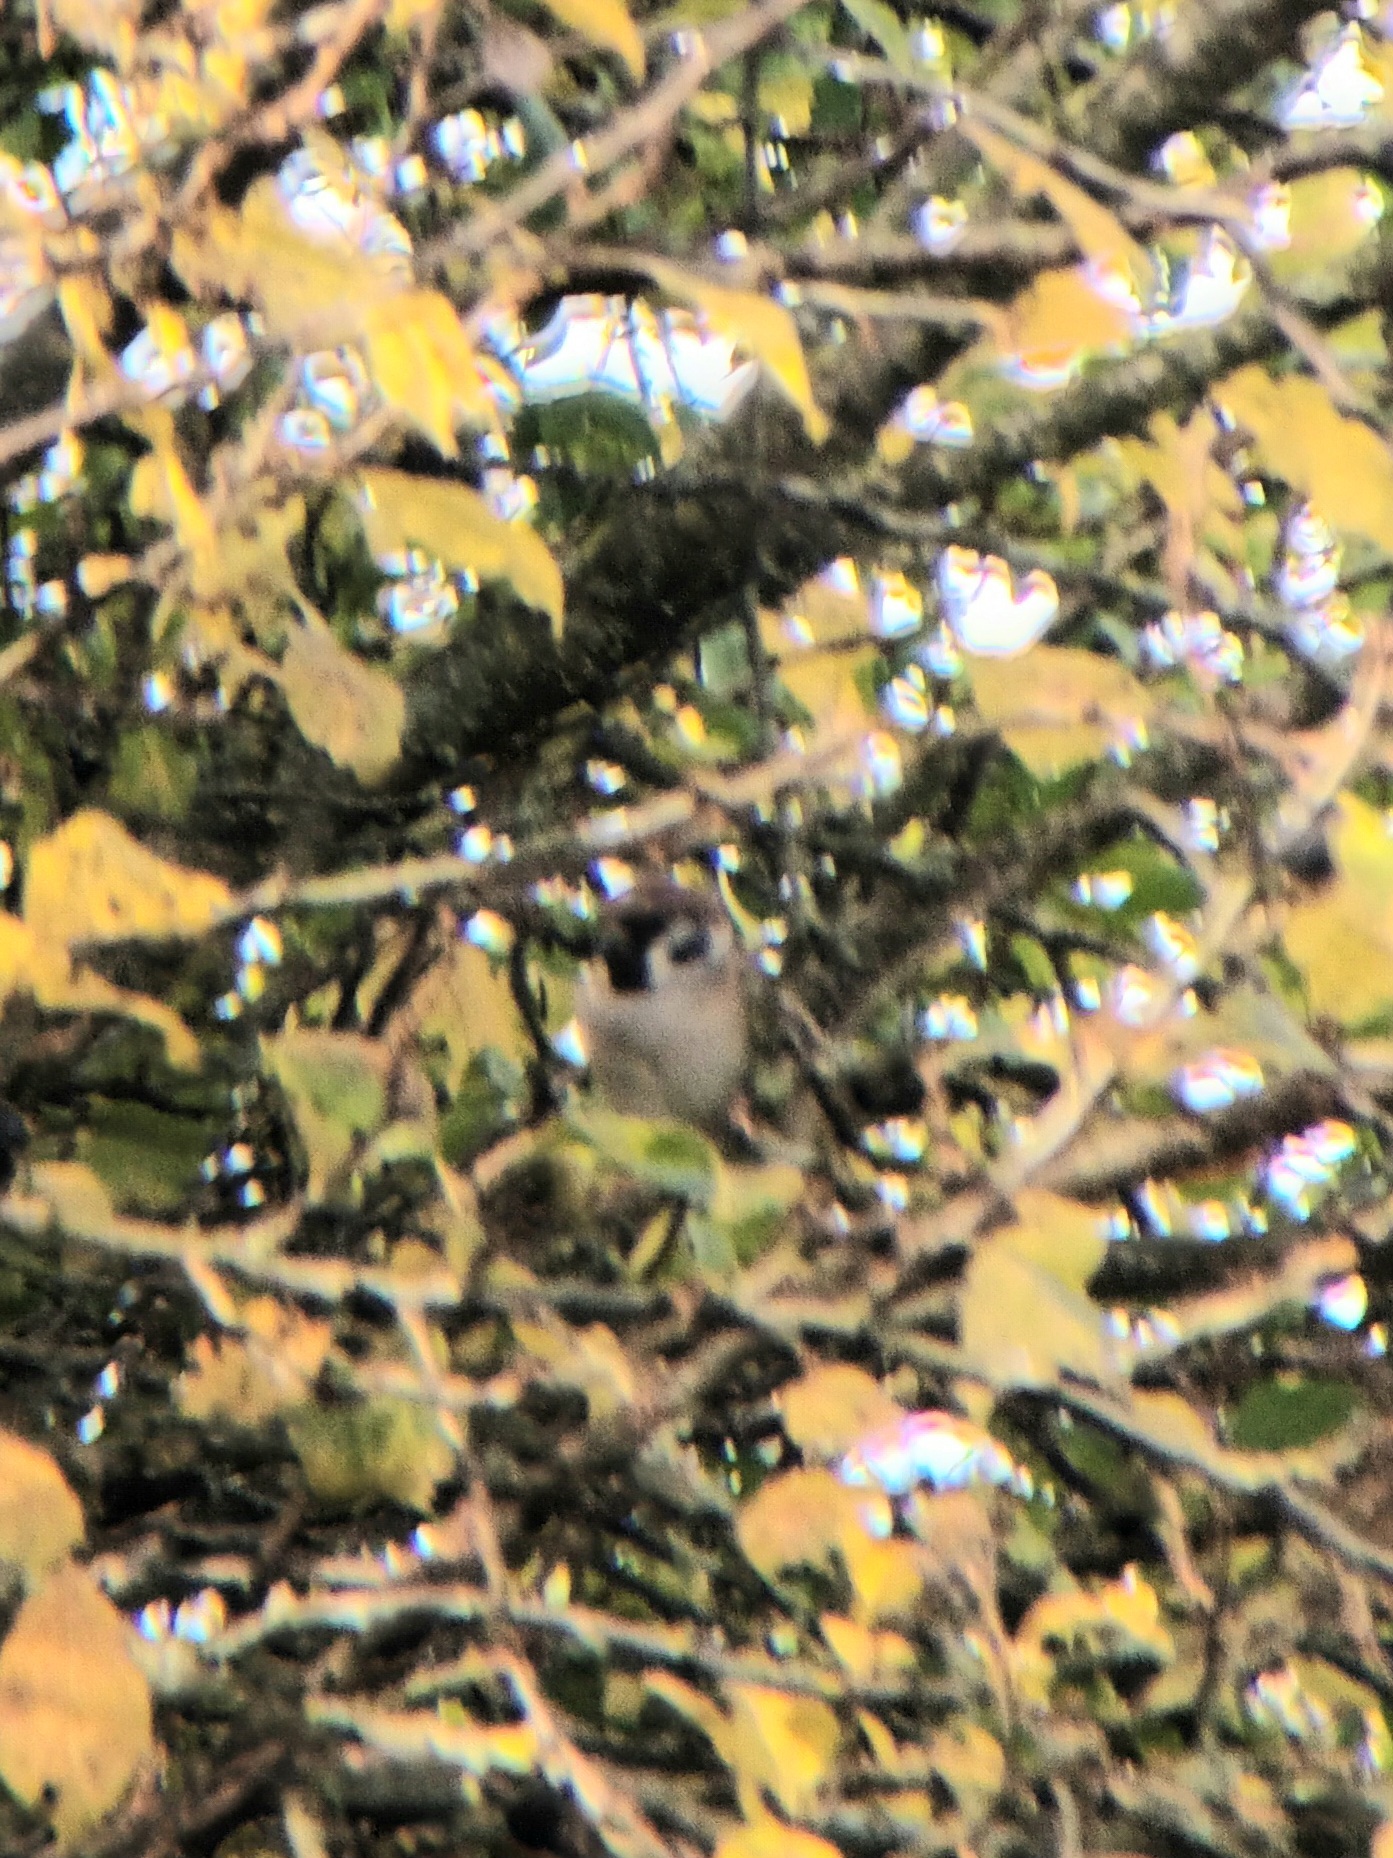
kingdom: Animalia
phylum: Chordata
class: Aves
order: Passeriformes
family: Passeridae
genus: Passer
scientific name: Passer montanus
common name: Eurasian tree sparrow
